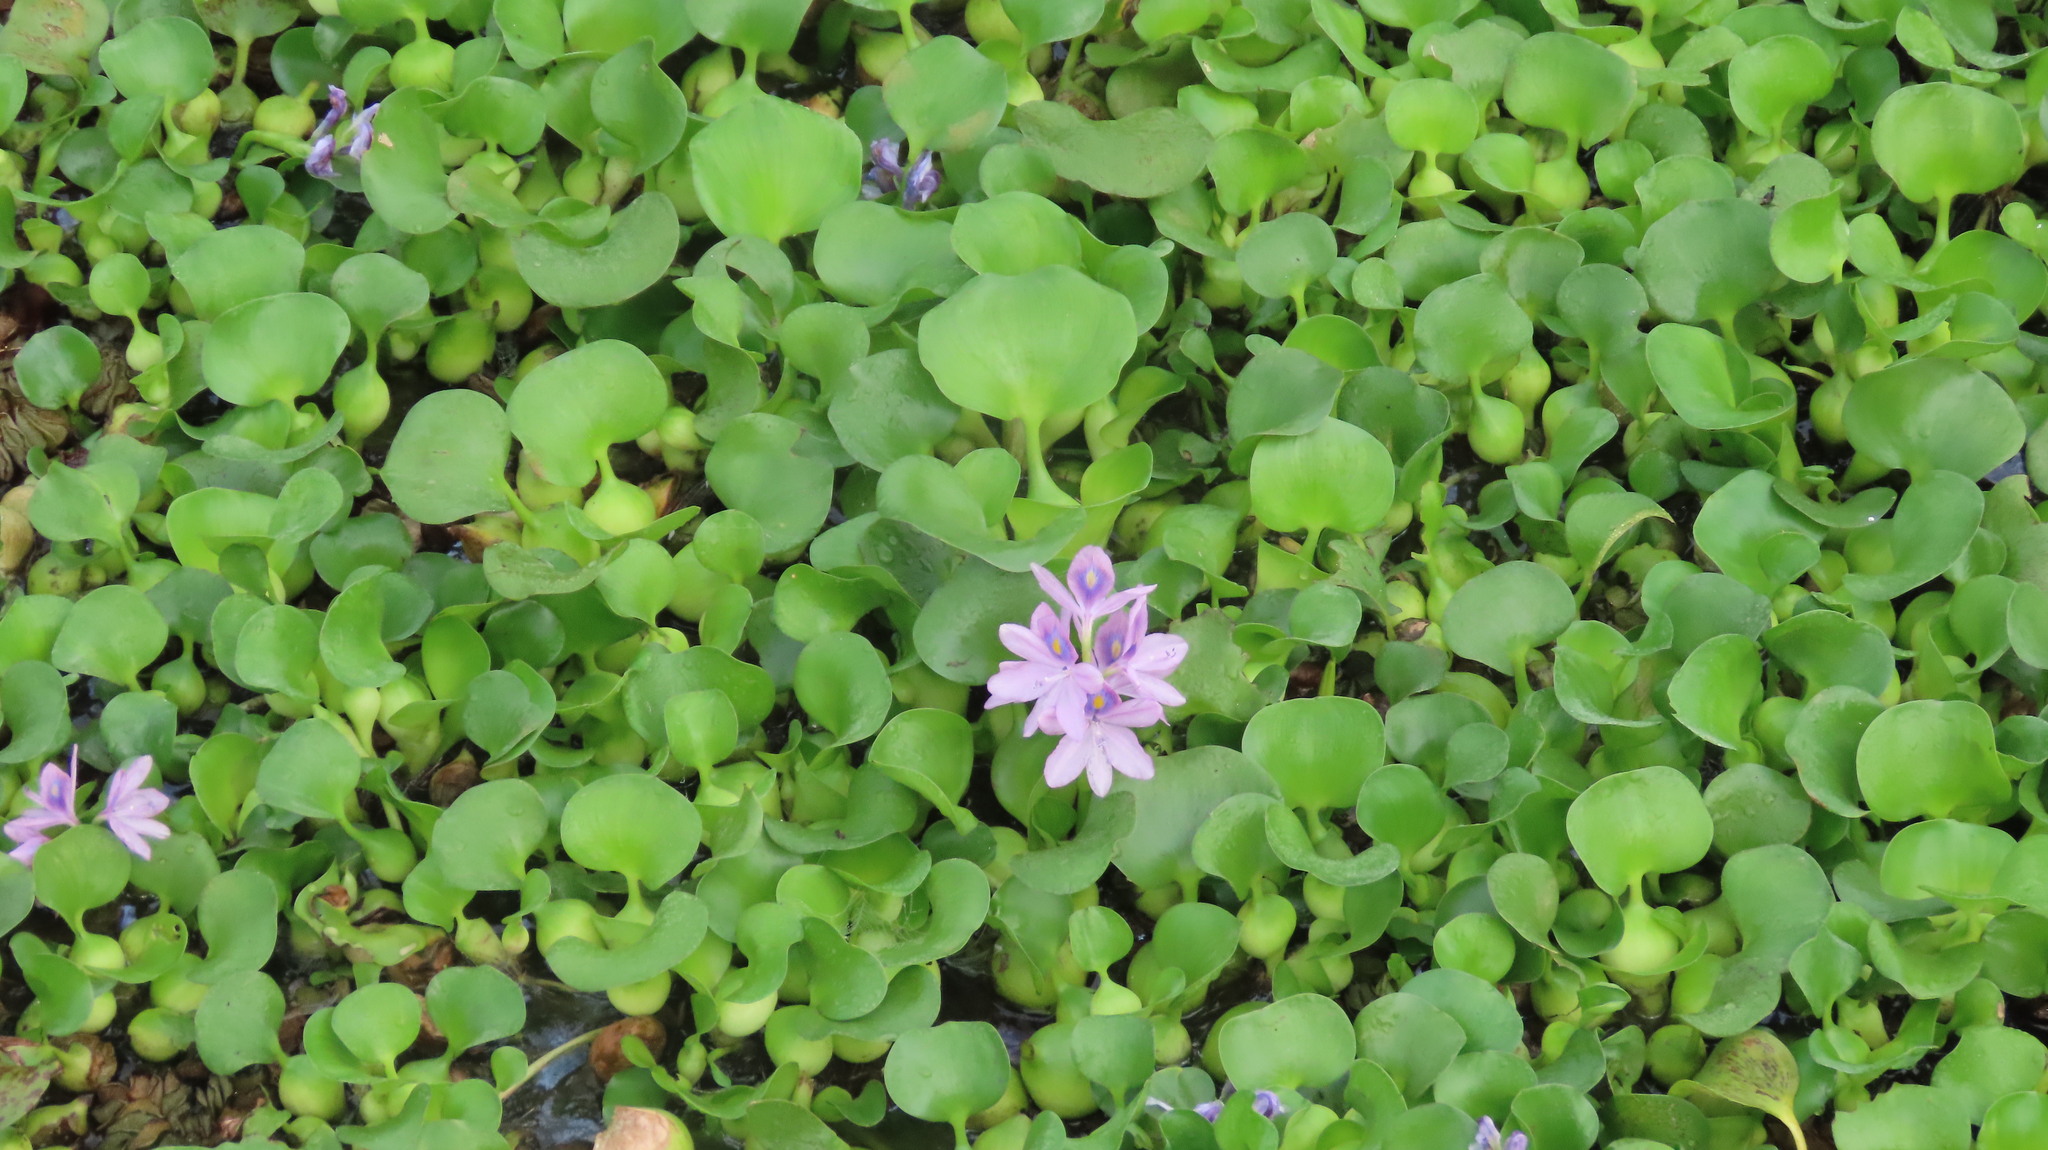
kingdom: Plantae
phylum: Tracheophyta
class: Liliopsida
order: Commelinales
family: Pontederiaceae
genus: Pontederia
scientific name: Pontederia crassipes
